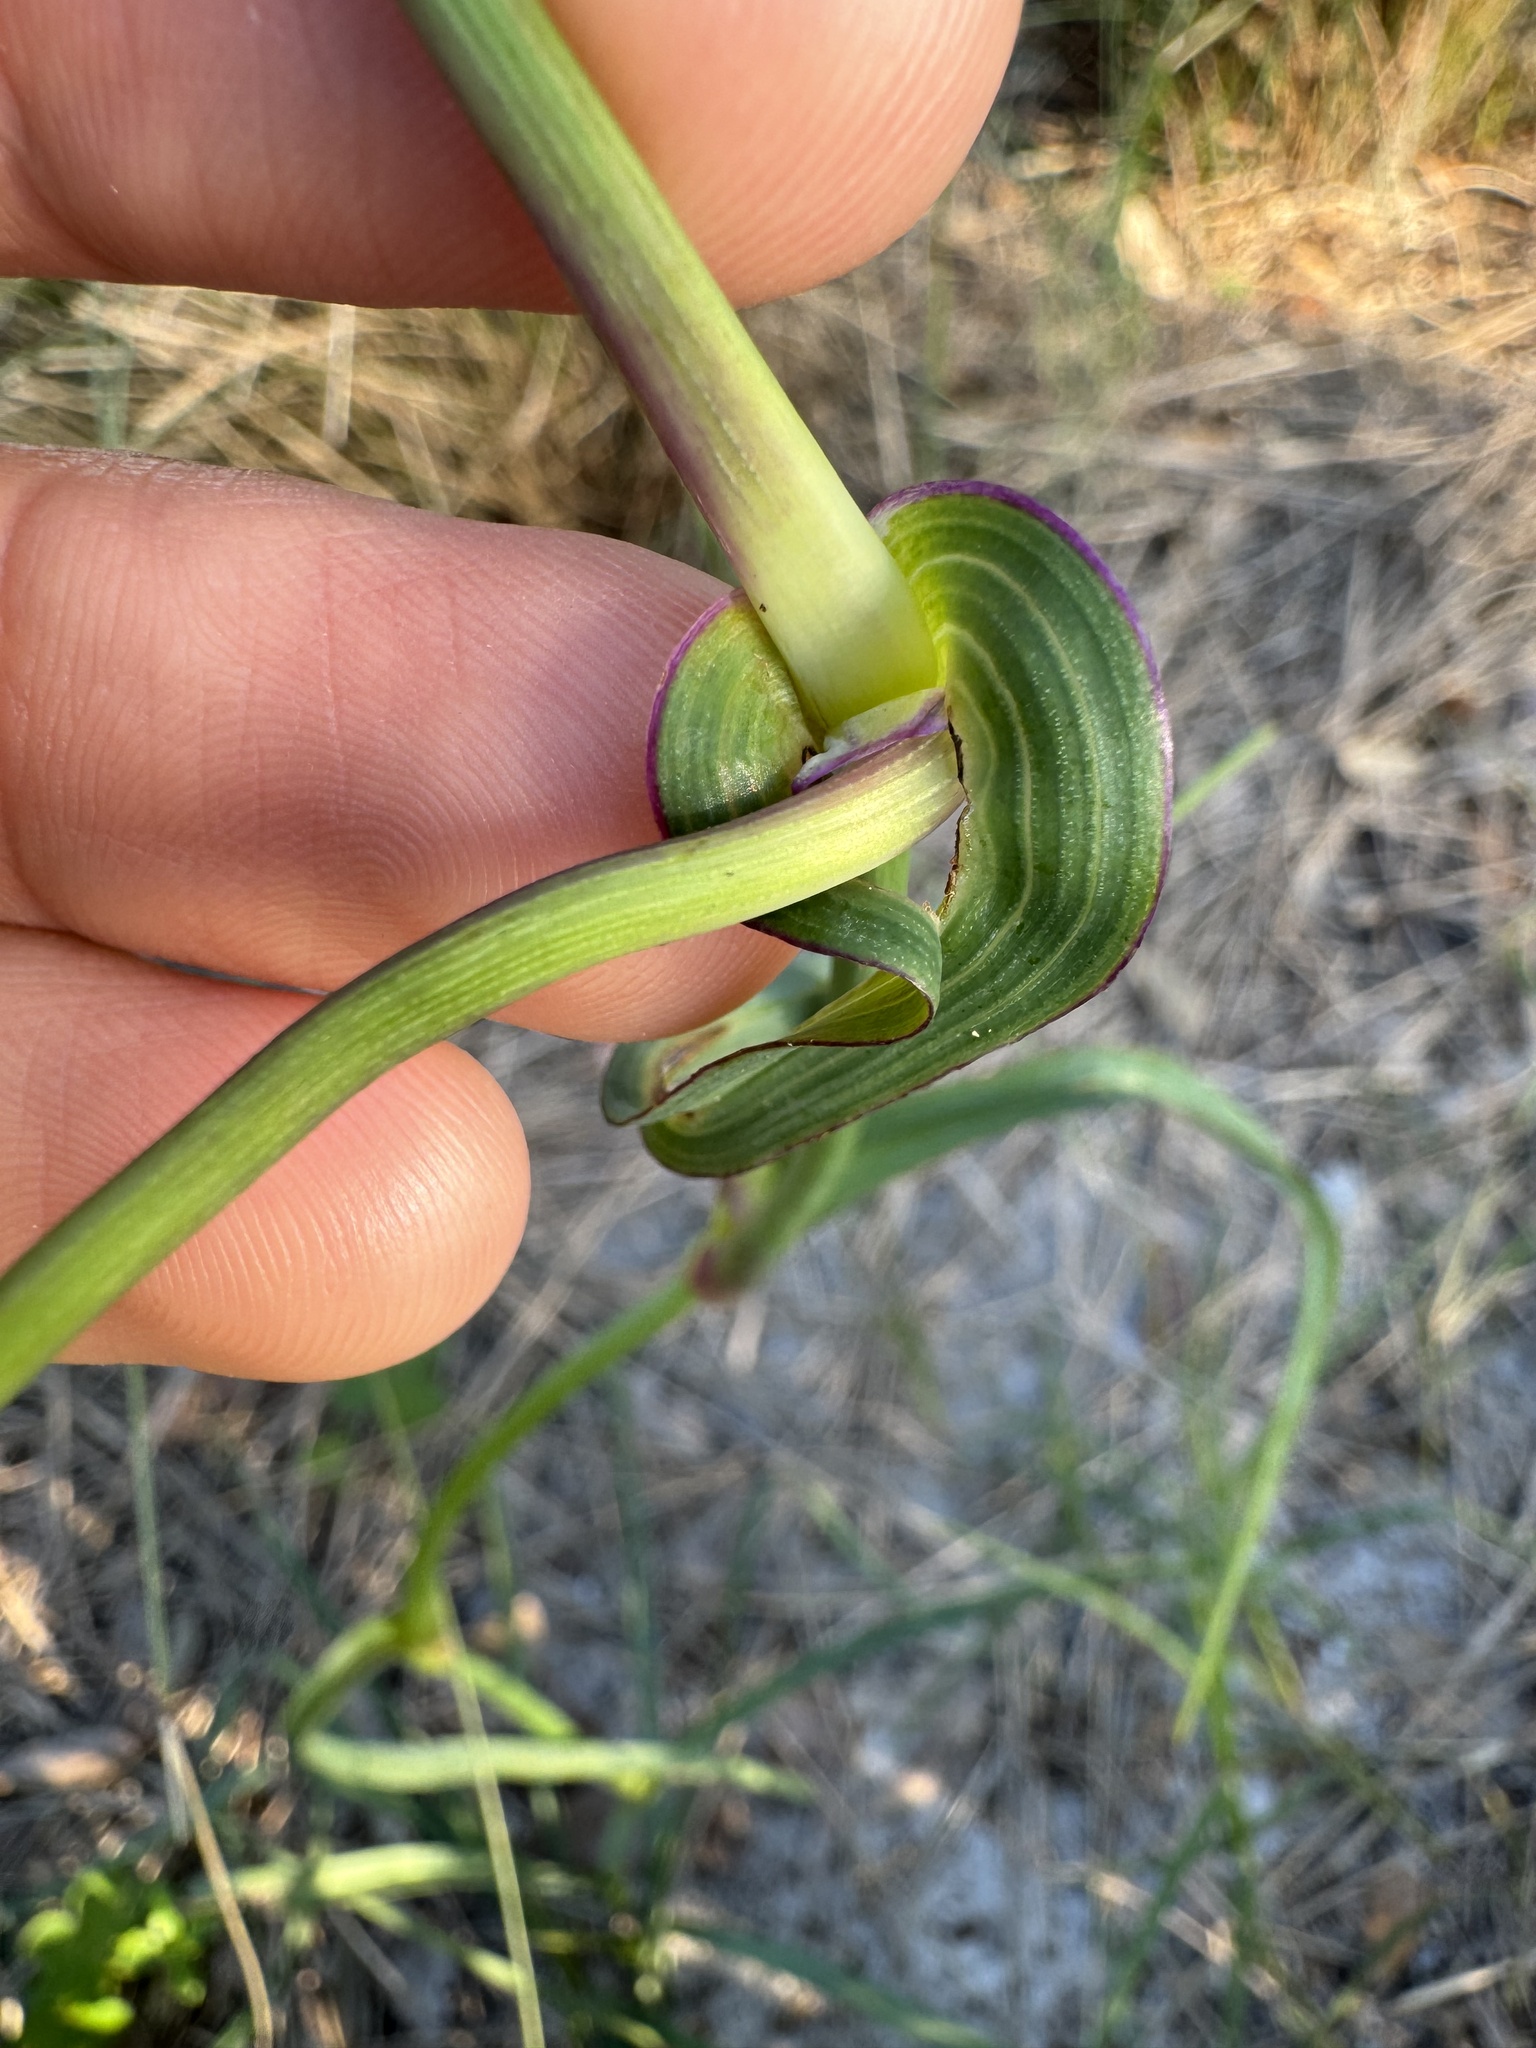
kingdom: Plantae
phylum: Tracheophyta
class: Liliopsida
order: Commelinales
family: Commelinaceae
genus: Tradescantia
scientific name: Tradescantia ohiensis
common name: Ohio spiderwort
